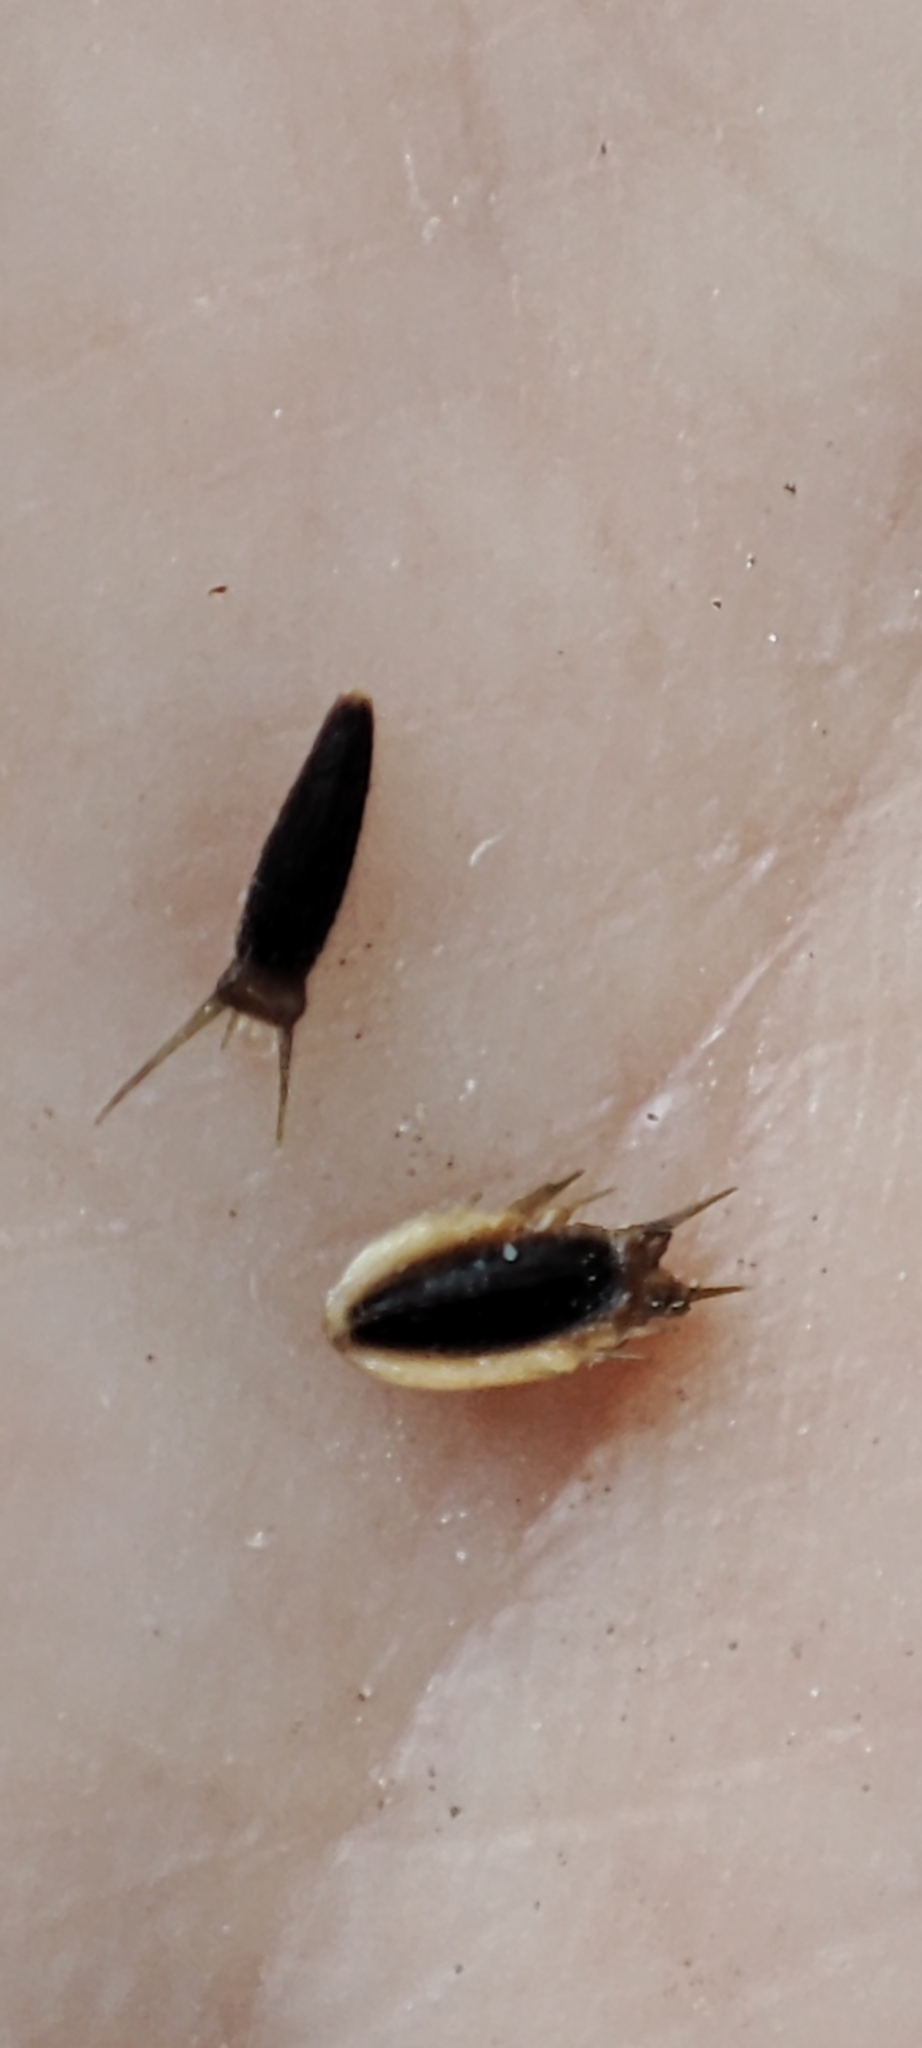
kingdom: Plantae
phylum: Tracheophyta
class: Magnoliopsida
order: Asterales
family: Asteraceae
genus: Synedrella
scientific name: Synedrella nodiflora
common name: Nodeweed
